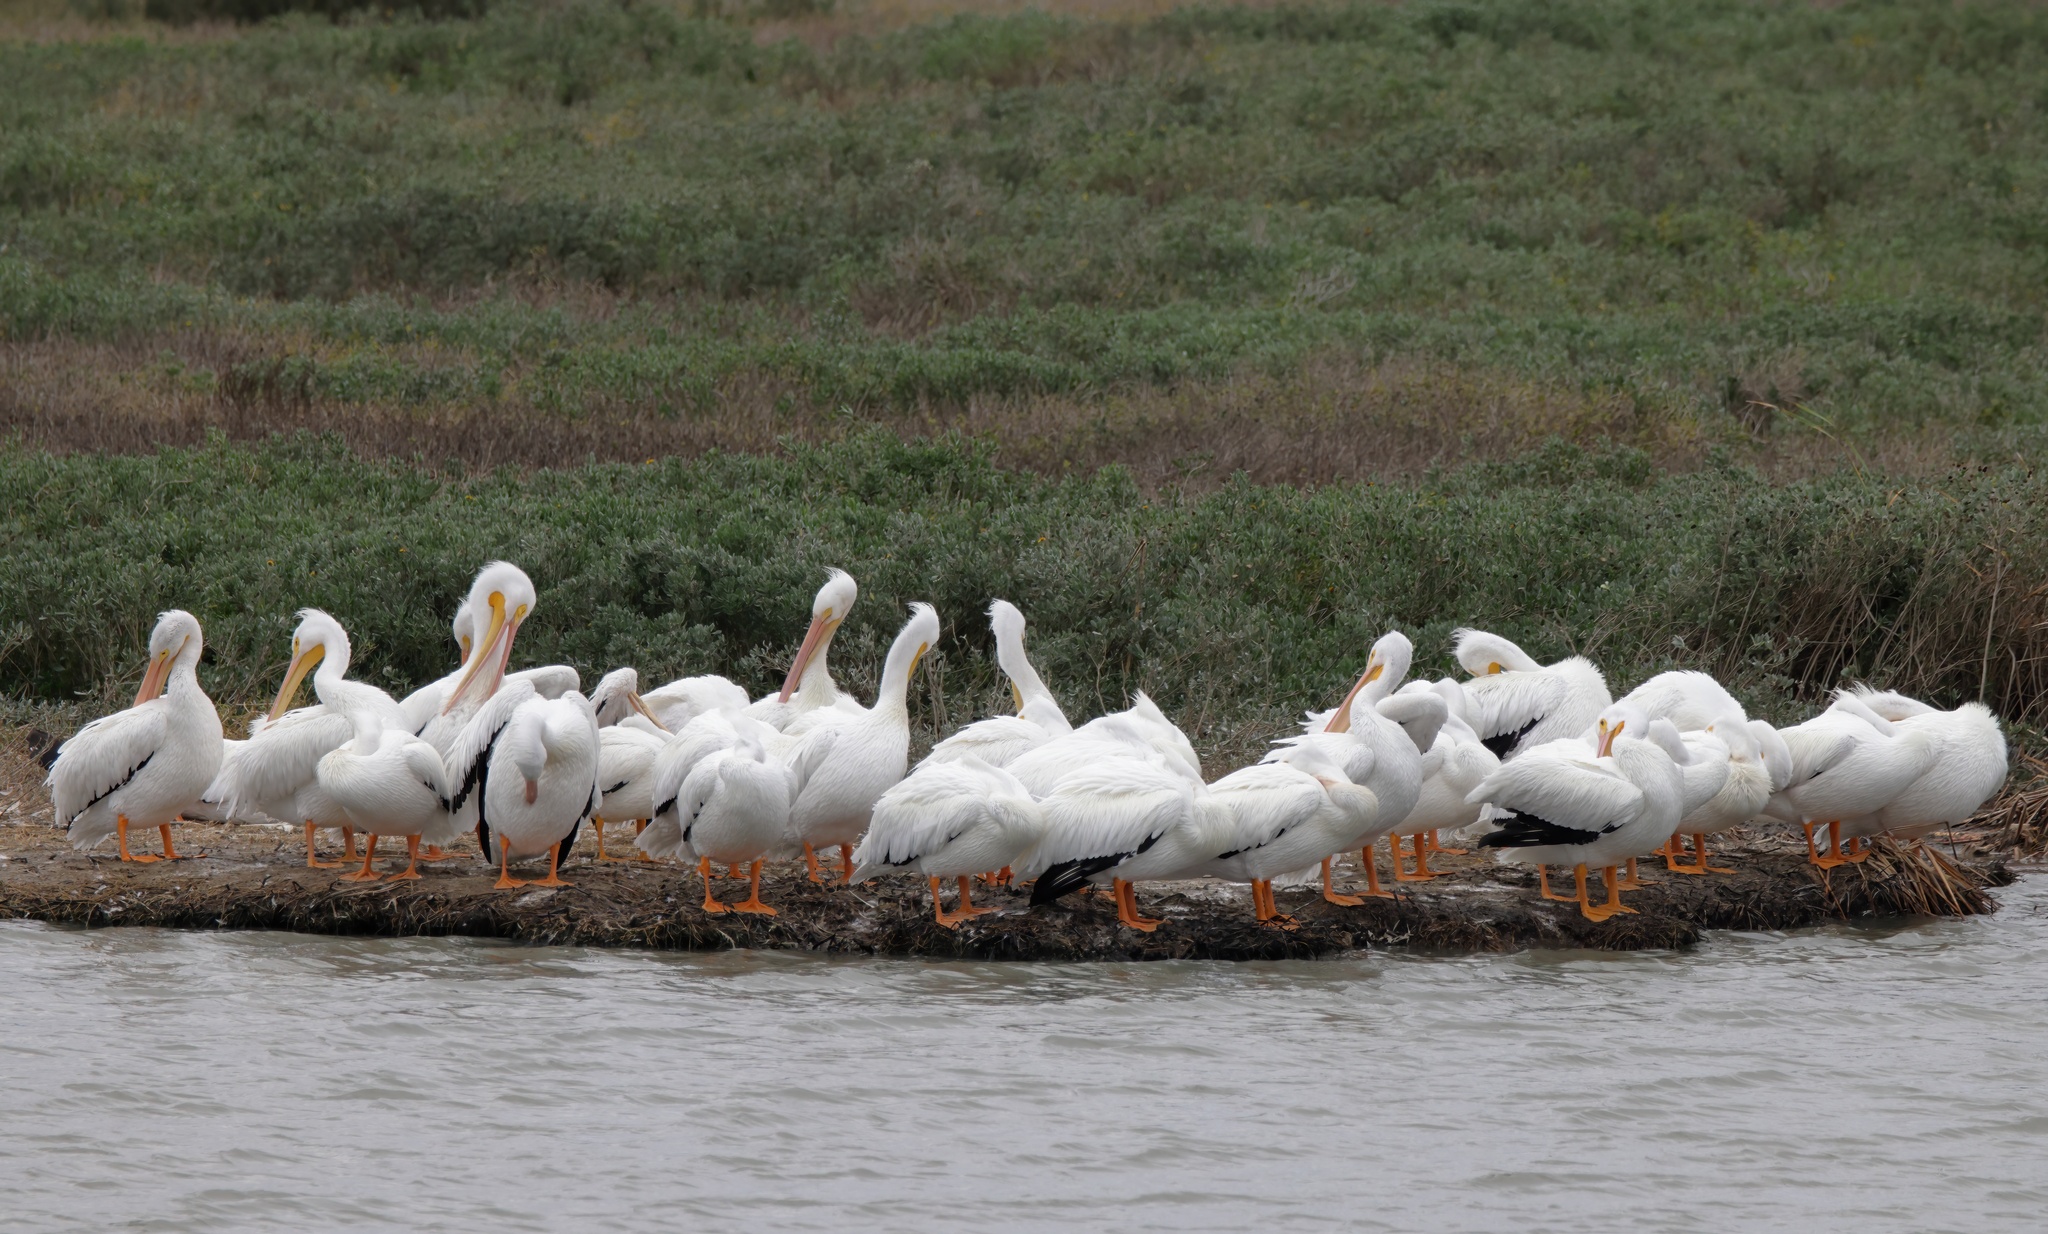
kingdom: Animalia
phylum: Chordata
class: Aves
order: Pelecaniformes
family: Pelecanidae
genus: Pelecanus
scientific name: Pelecanus erythrorhynchos
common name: American white pelican
